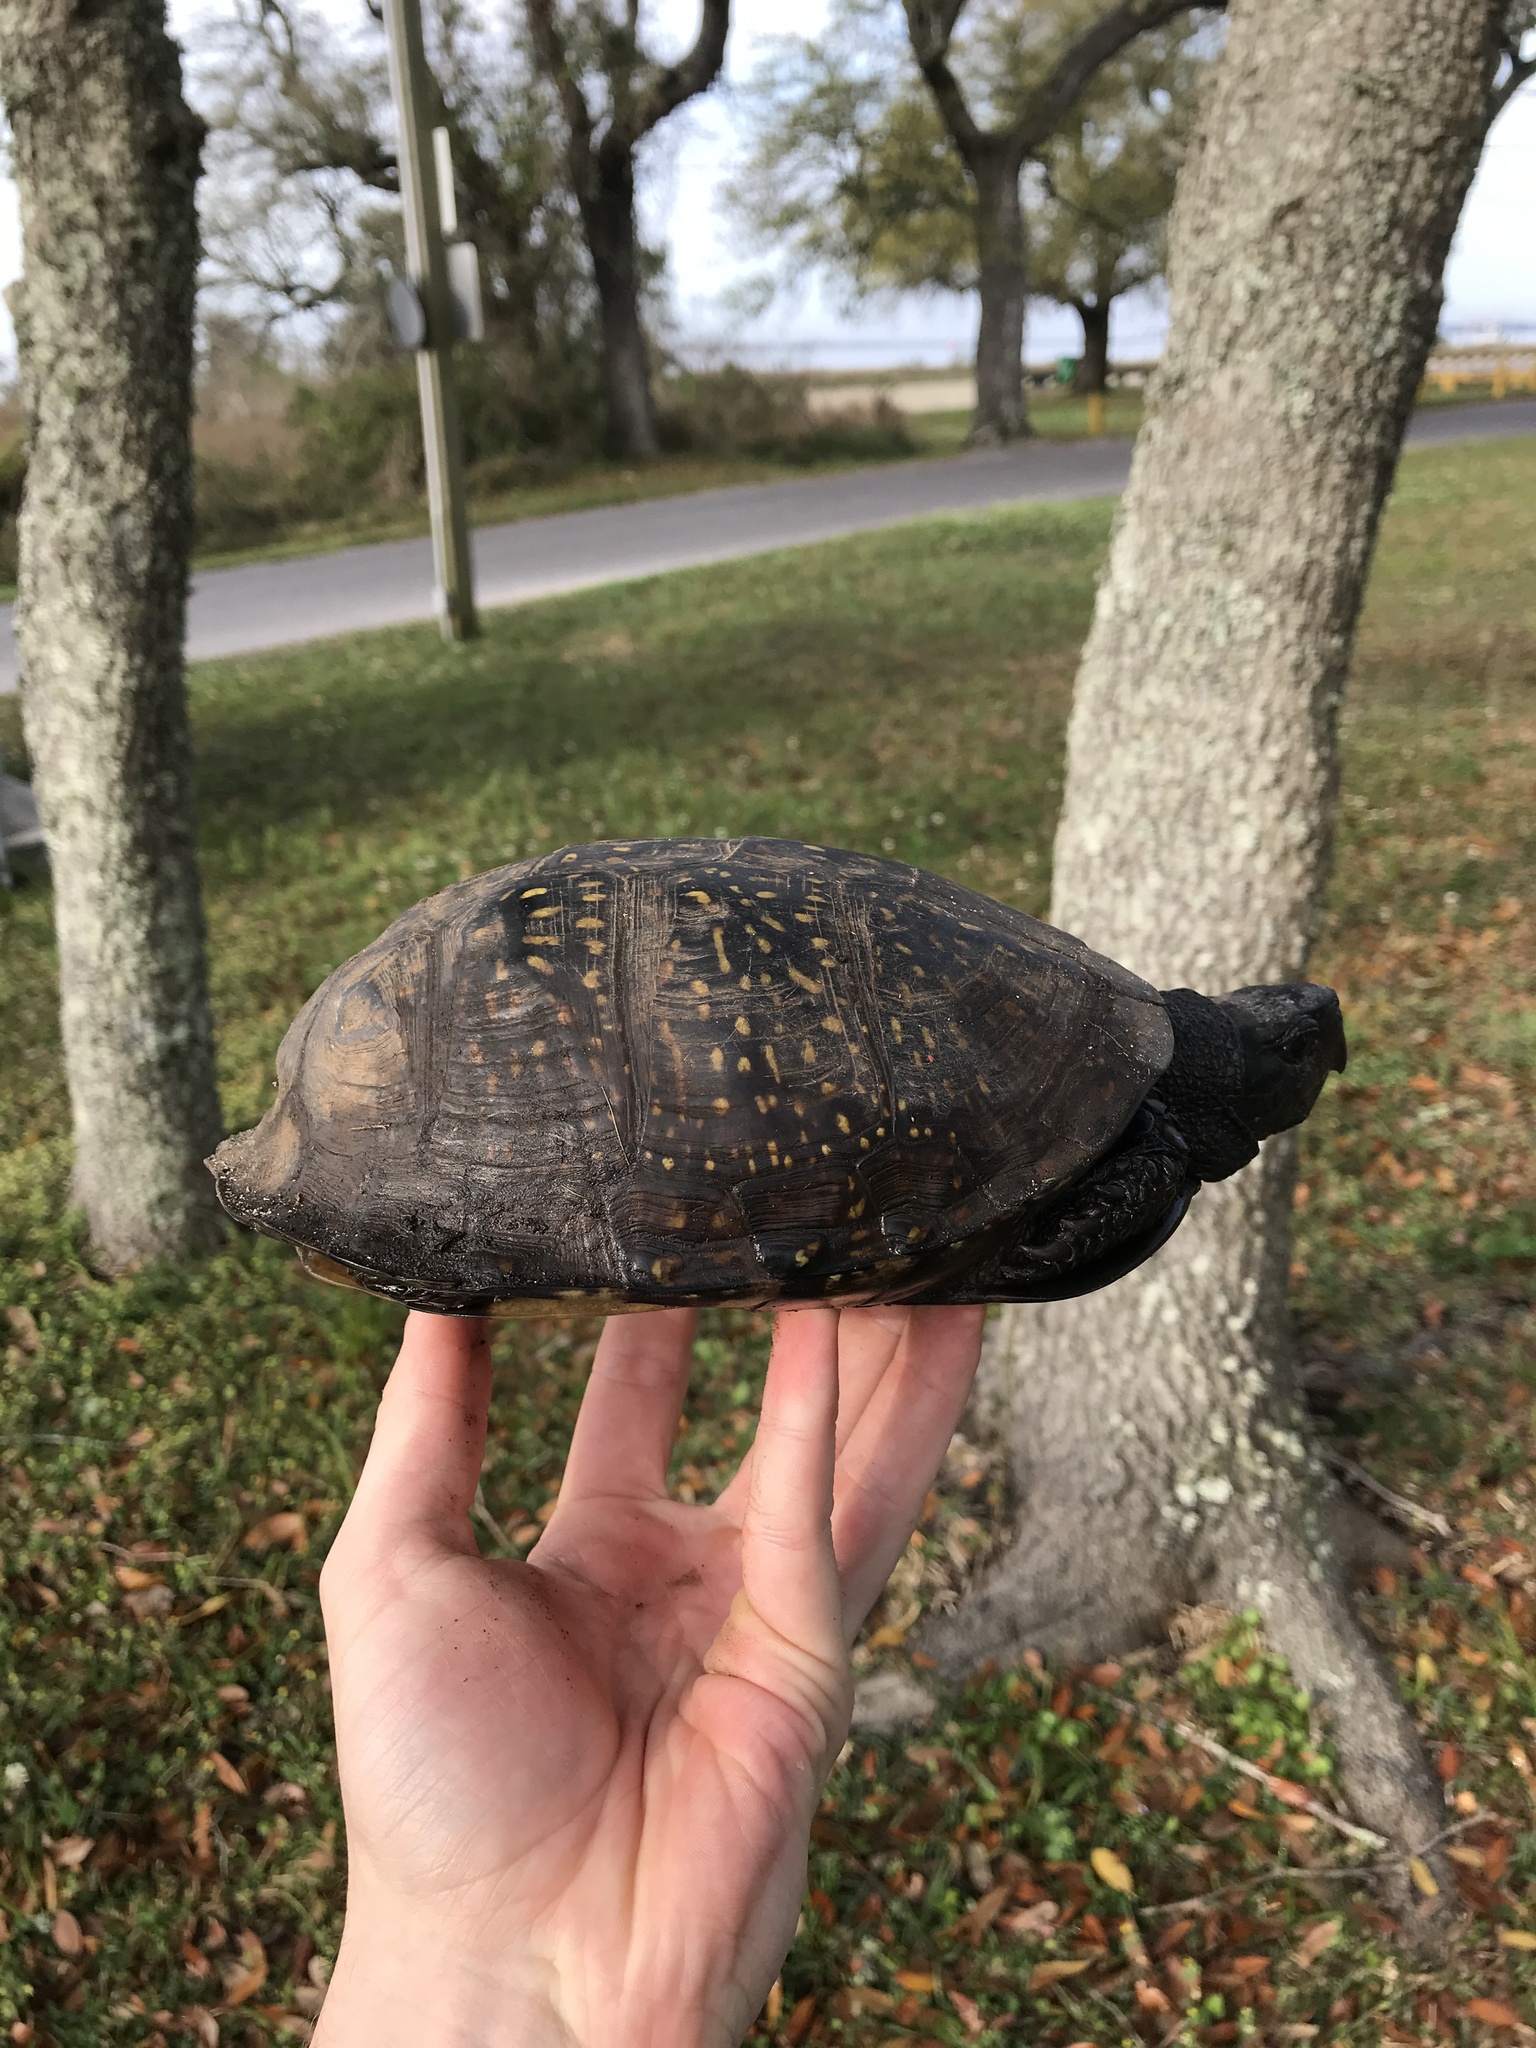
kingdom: Animalia
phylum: Chordata
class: Testudines
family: Emydidae
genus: Terrapene
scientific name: Terrapene carolina
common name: Common box turtle
